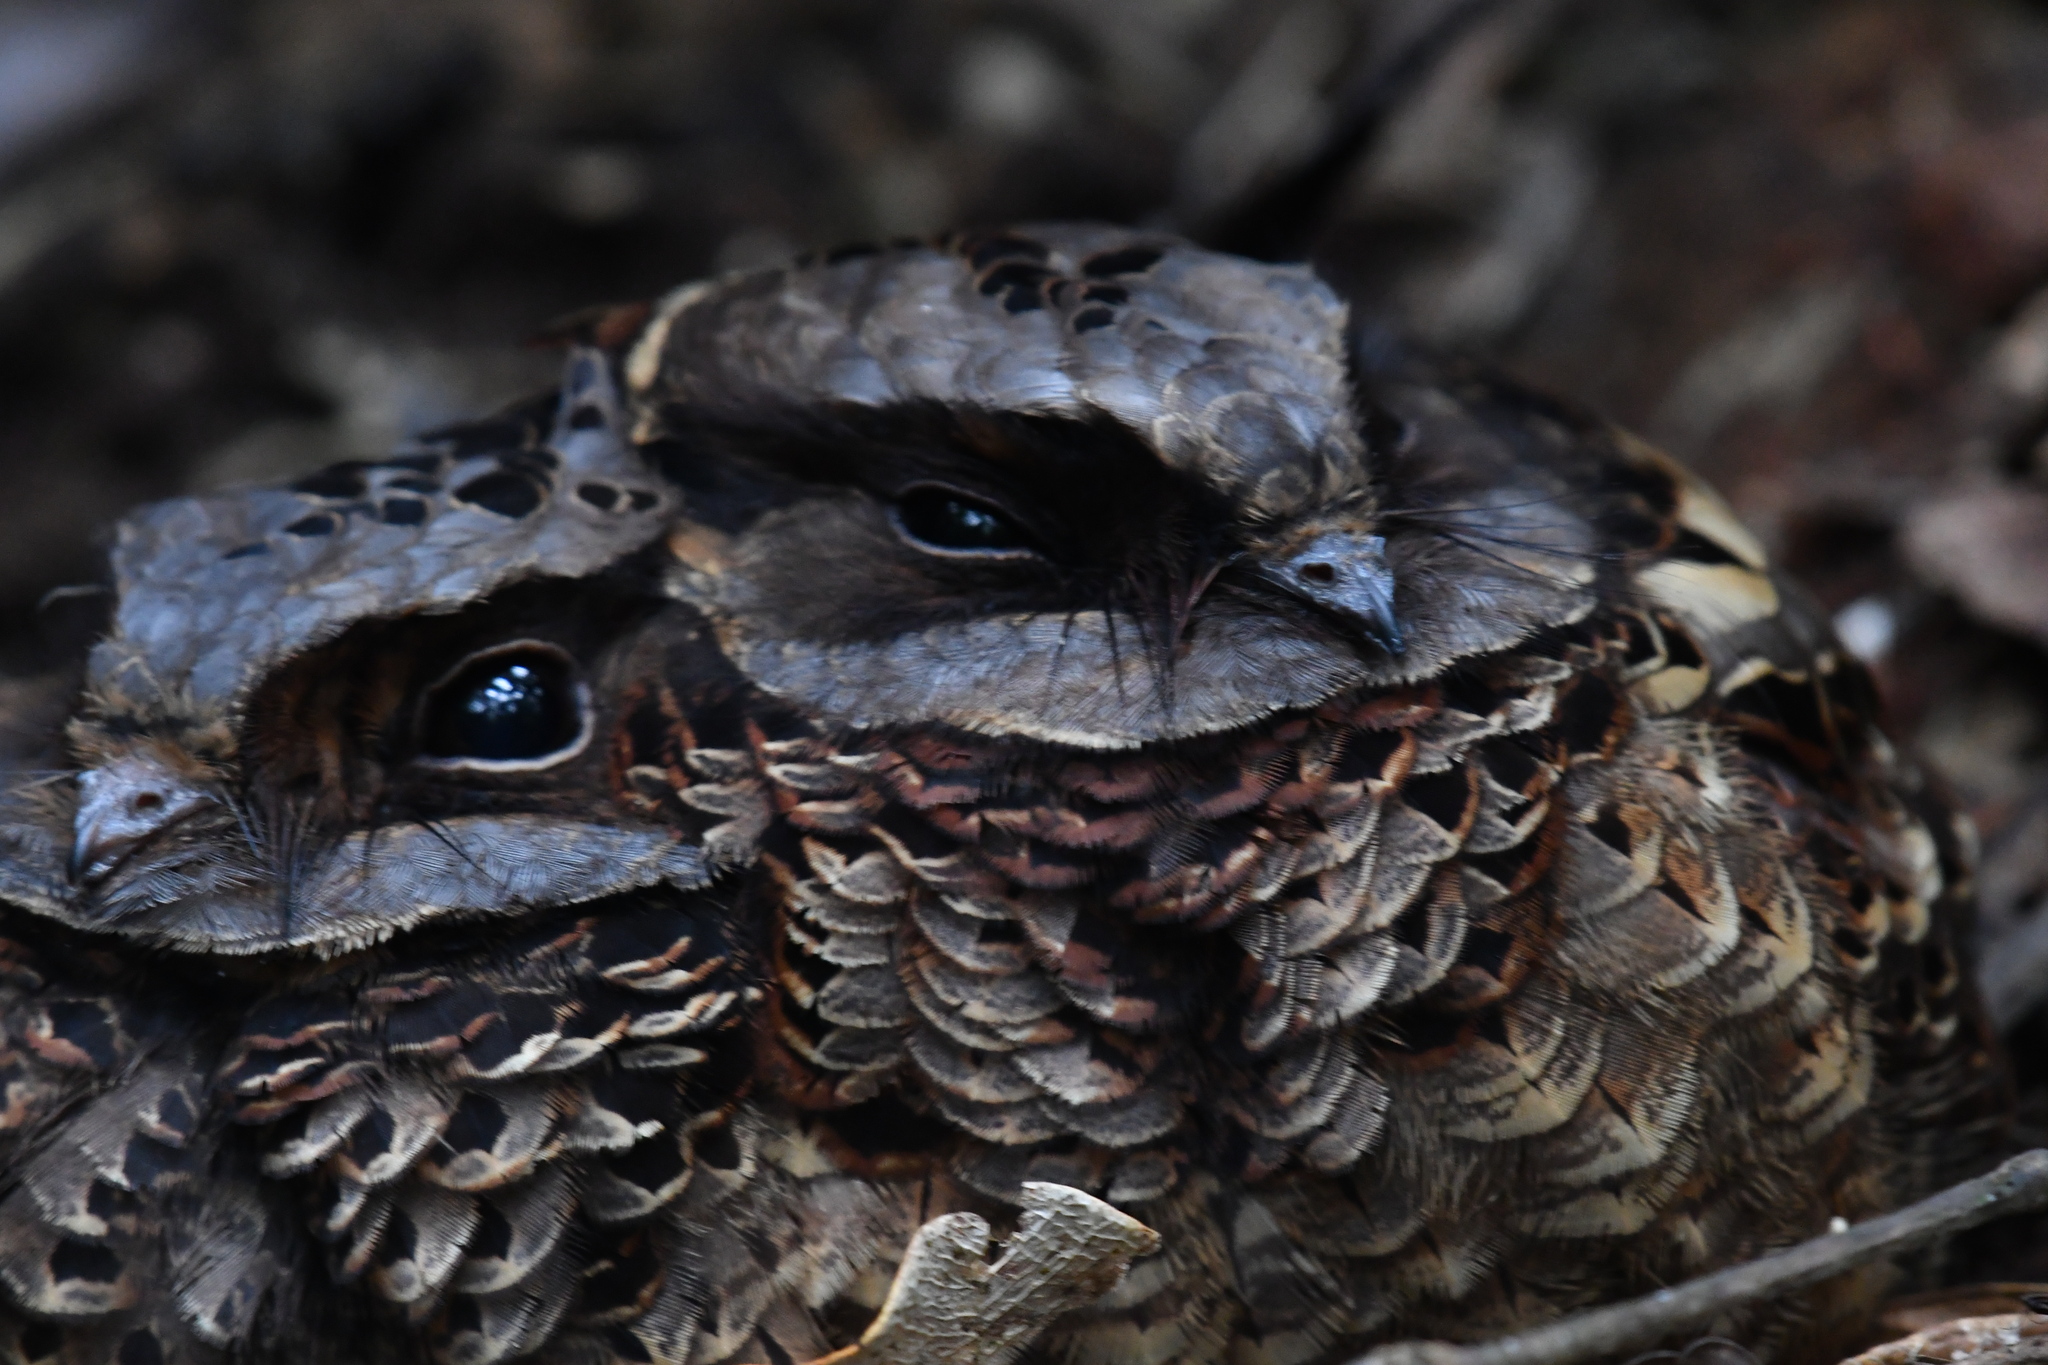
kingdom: Animalia
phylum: Chordata
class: Aves
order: Caprimulgiformes
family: Caprimulgidae
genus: Gactornis
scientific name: Gactornis enarratus
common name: Collared nightjar
